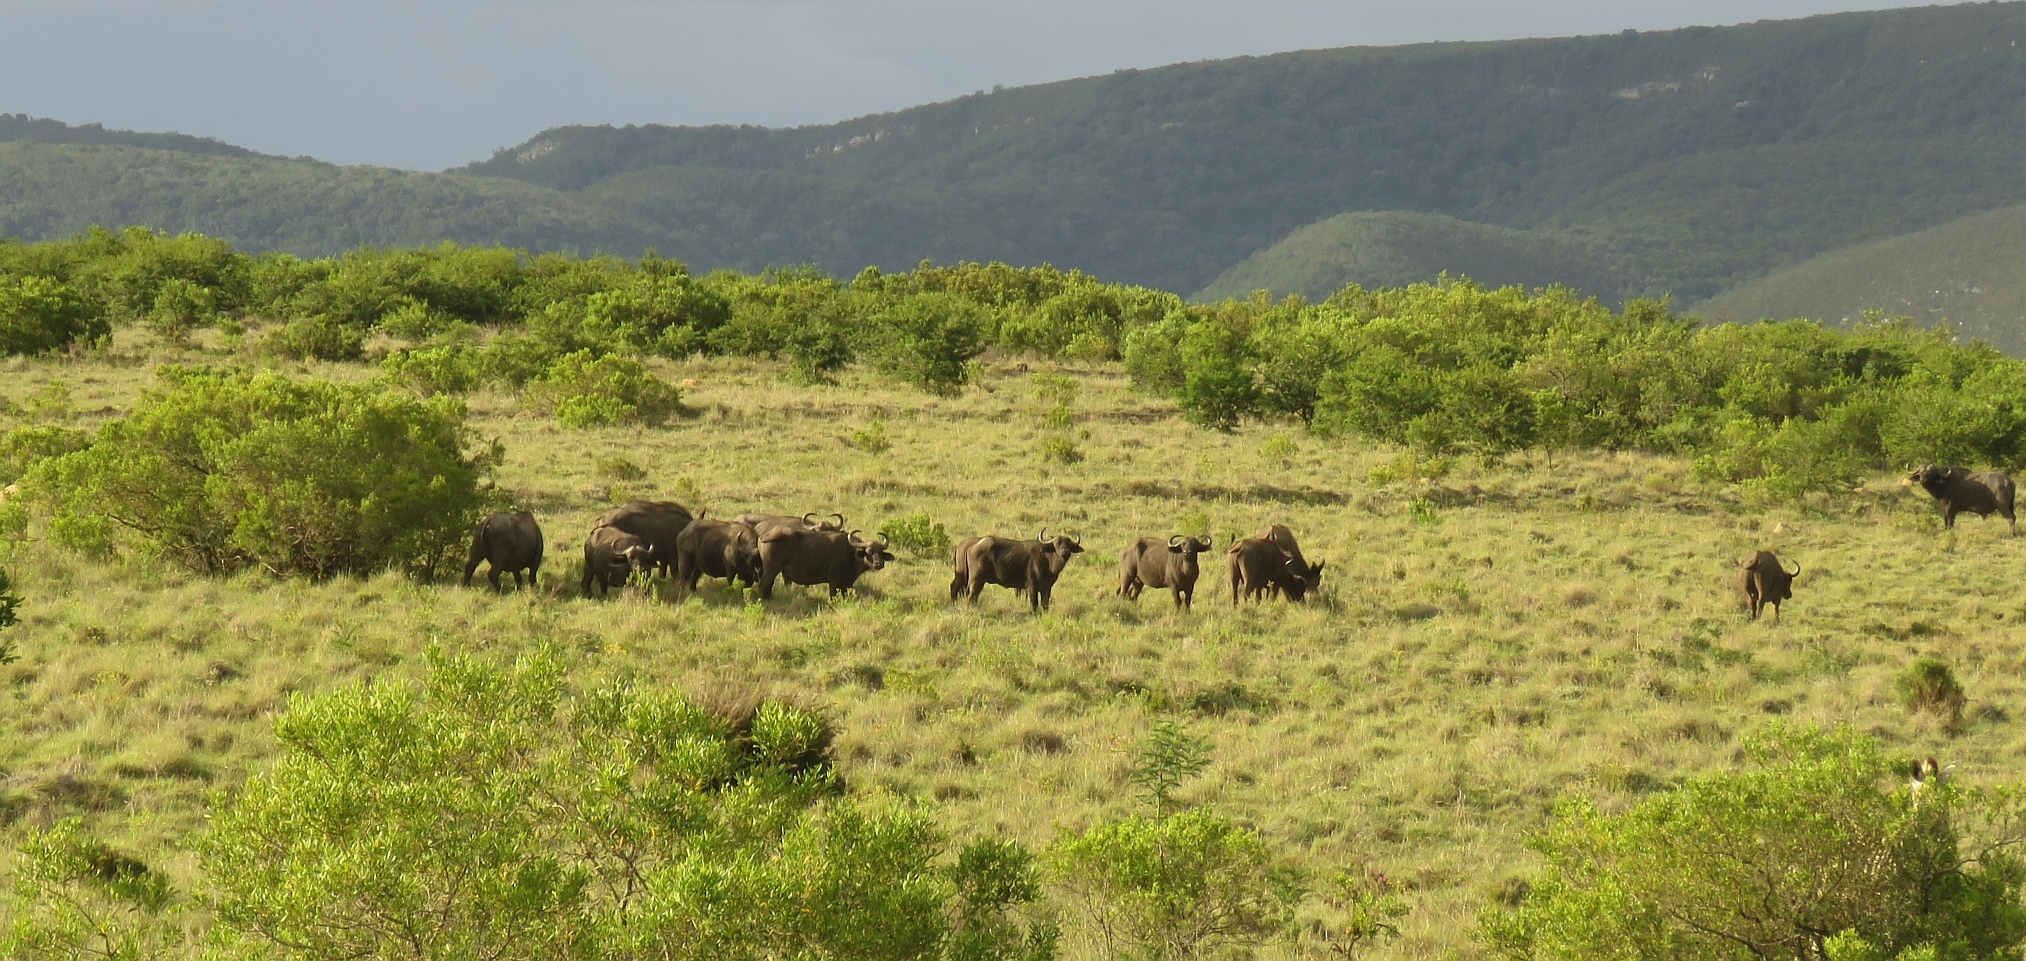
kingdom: Animalia
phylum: Chordata
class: Mammalia
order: Artiodactyla
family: Bovidae
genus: Syncerus
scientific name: Syncerus caffer
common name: African buffalo
